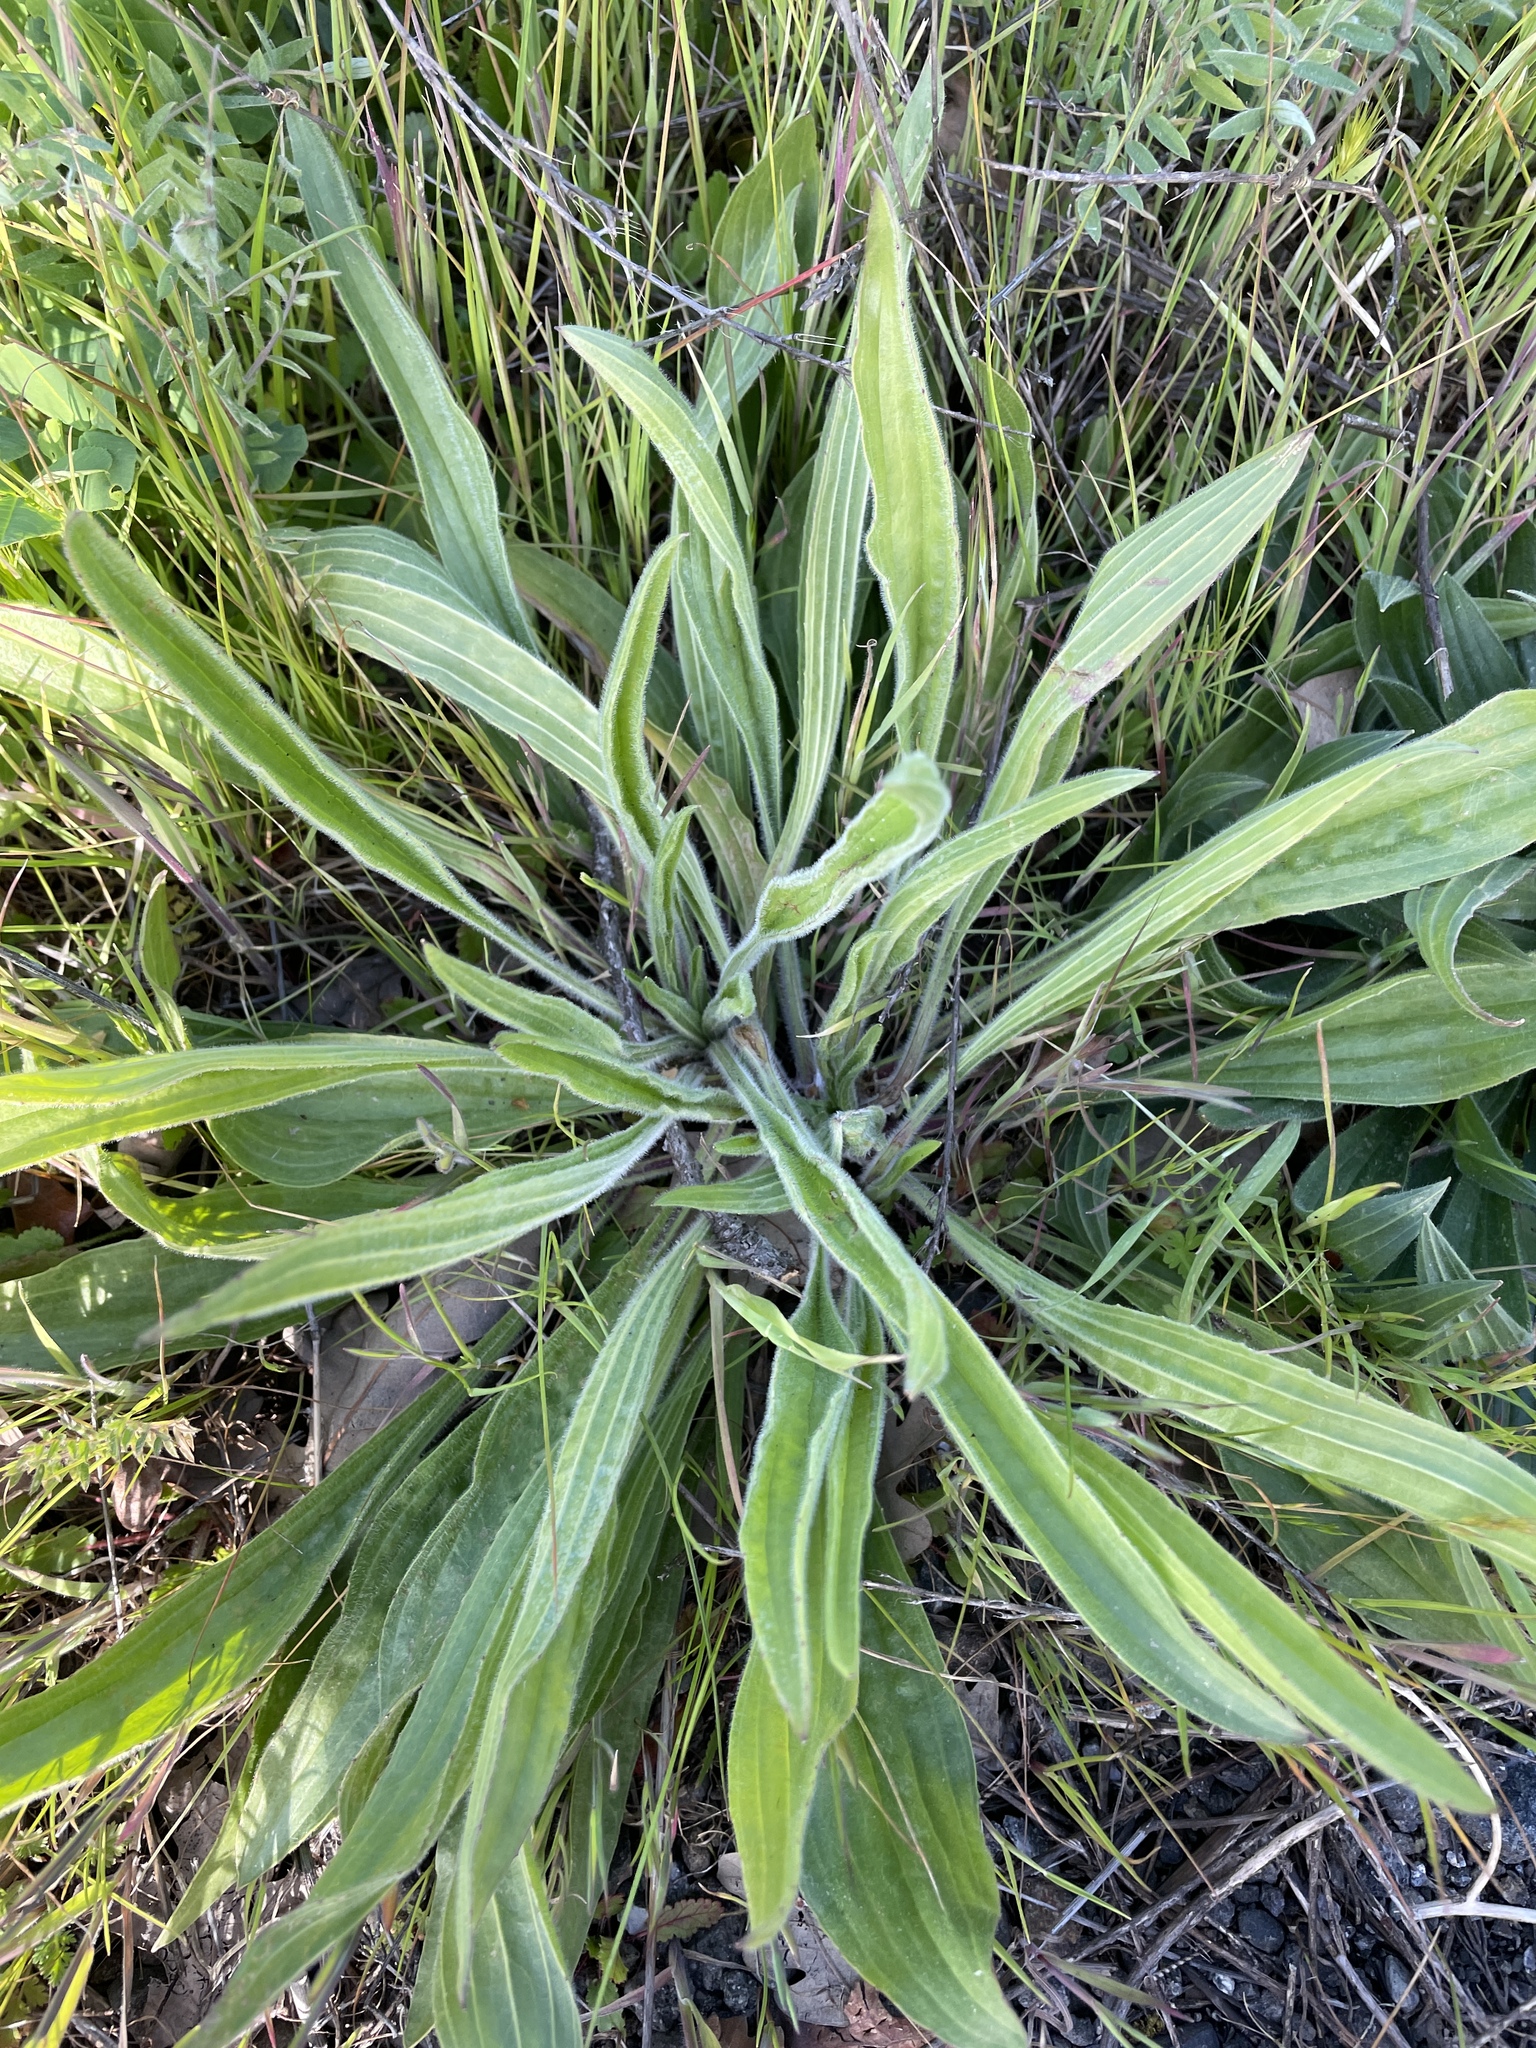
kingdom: Plantae
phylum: Tracheophyta
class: Magnoliopsida
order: Lamiales
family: Plantaginaceae
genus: Plantago
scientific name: Plantago lanceolata
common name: Ribwort plantain
